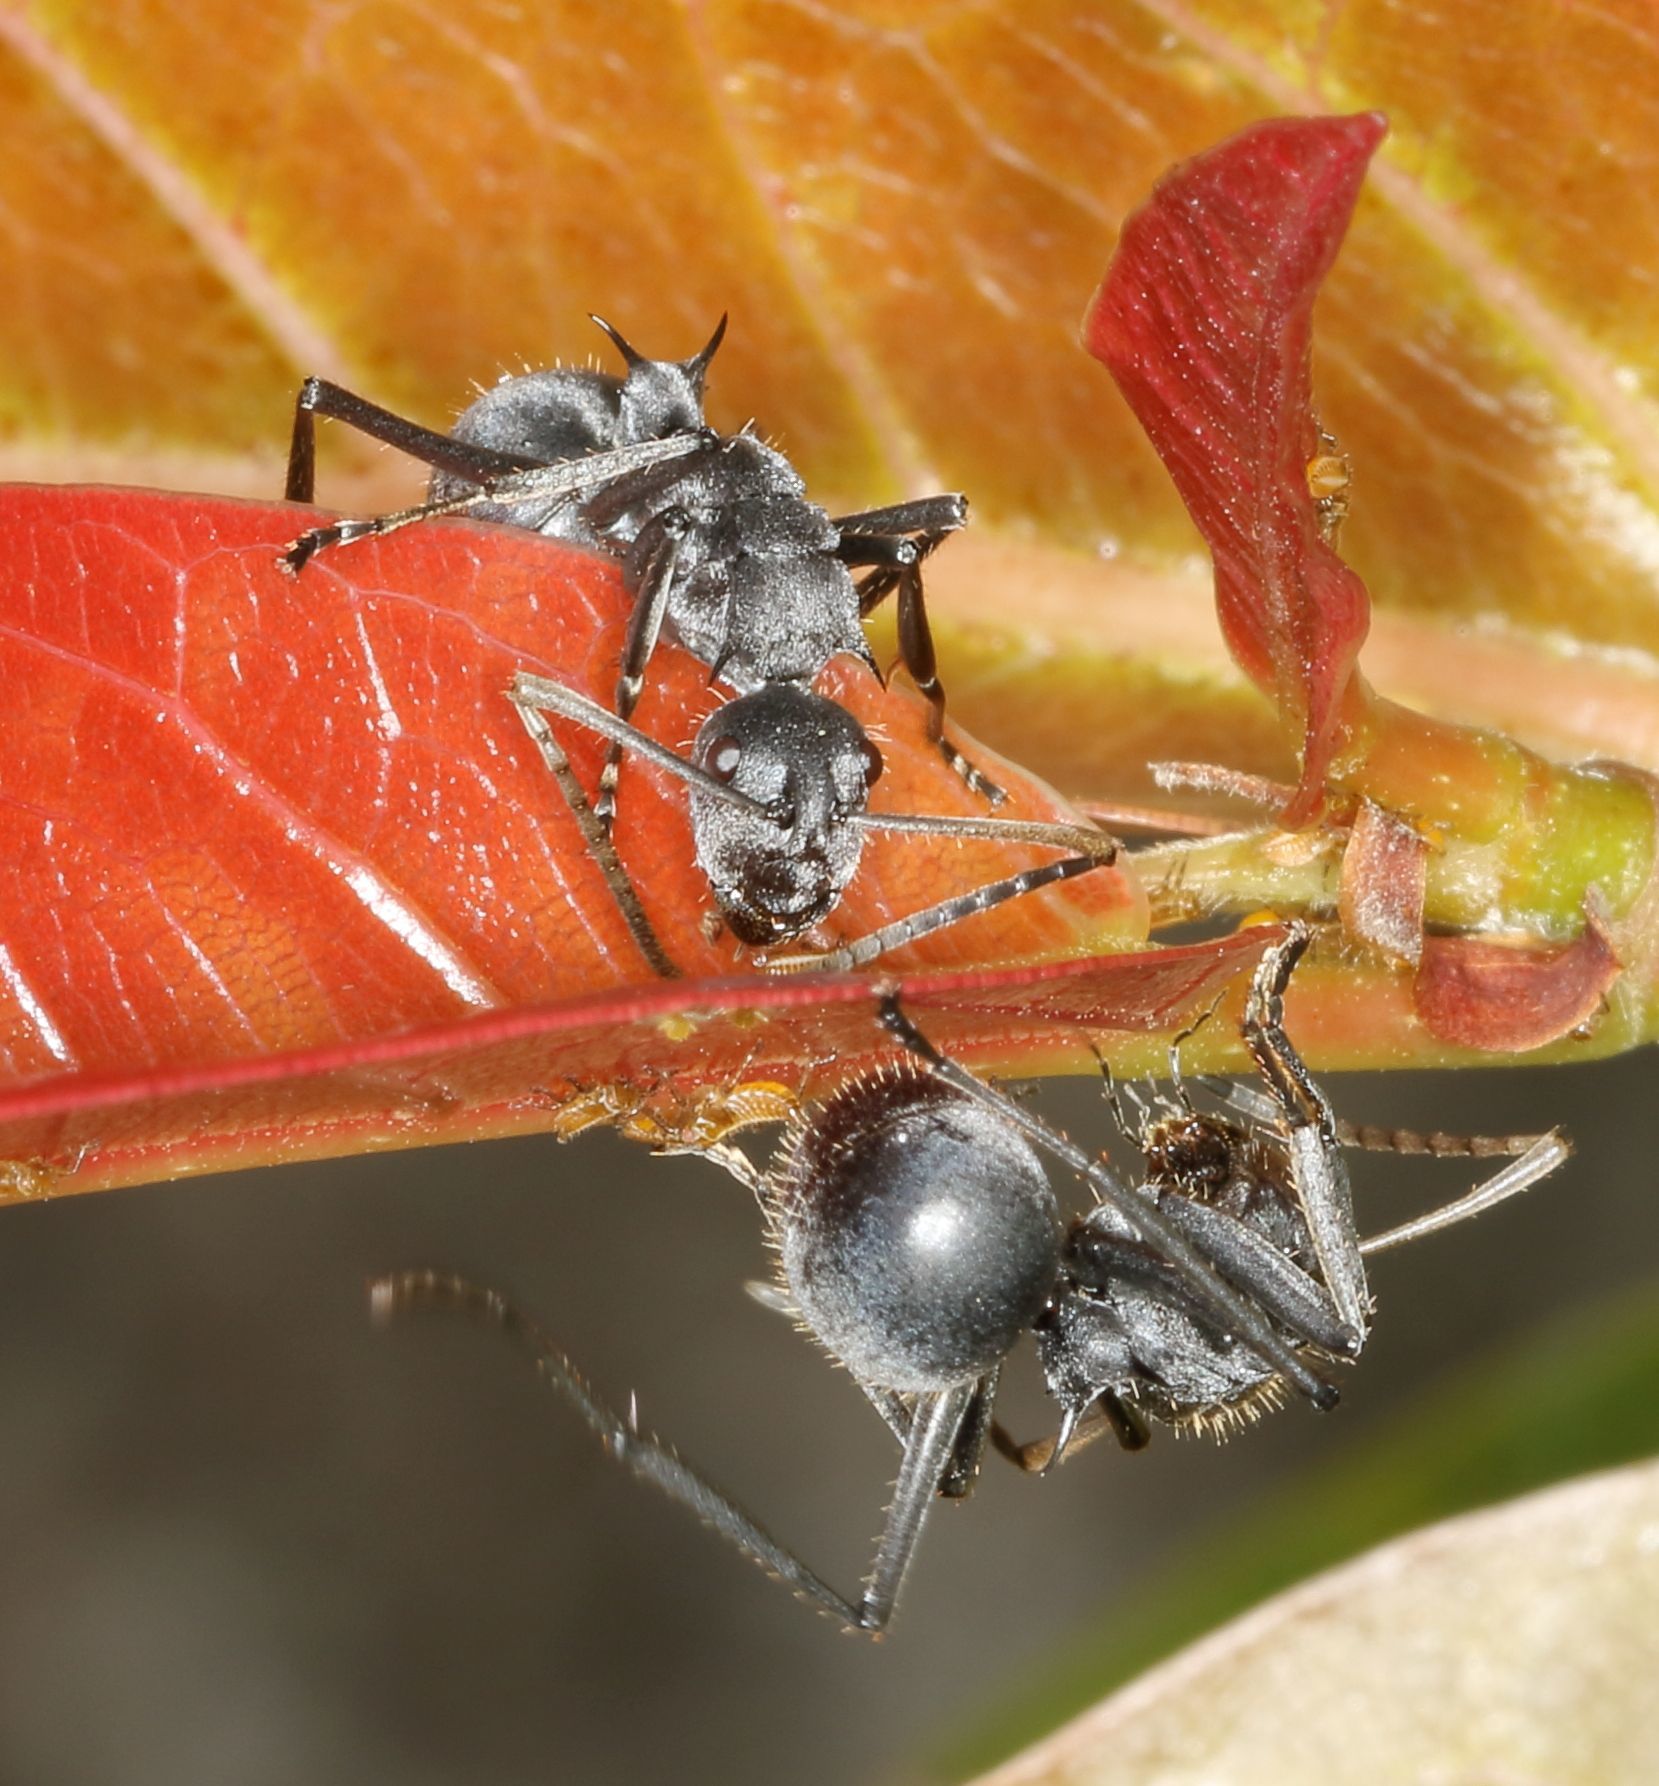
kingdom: Animalia
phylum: Arthropoda
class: Insecta
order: Hymenoptera
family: Formicidae
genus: Polyrhachis
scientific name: Polyrhachis schistacea
